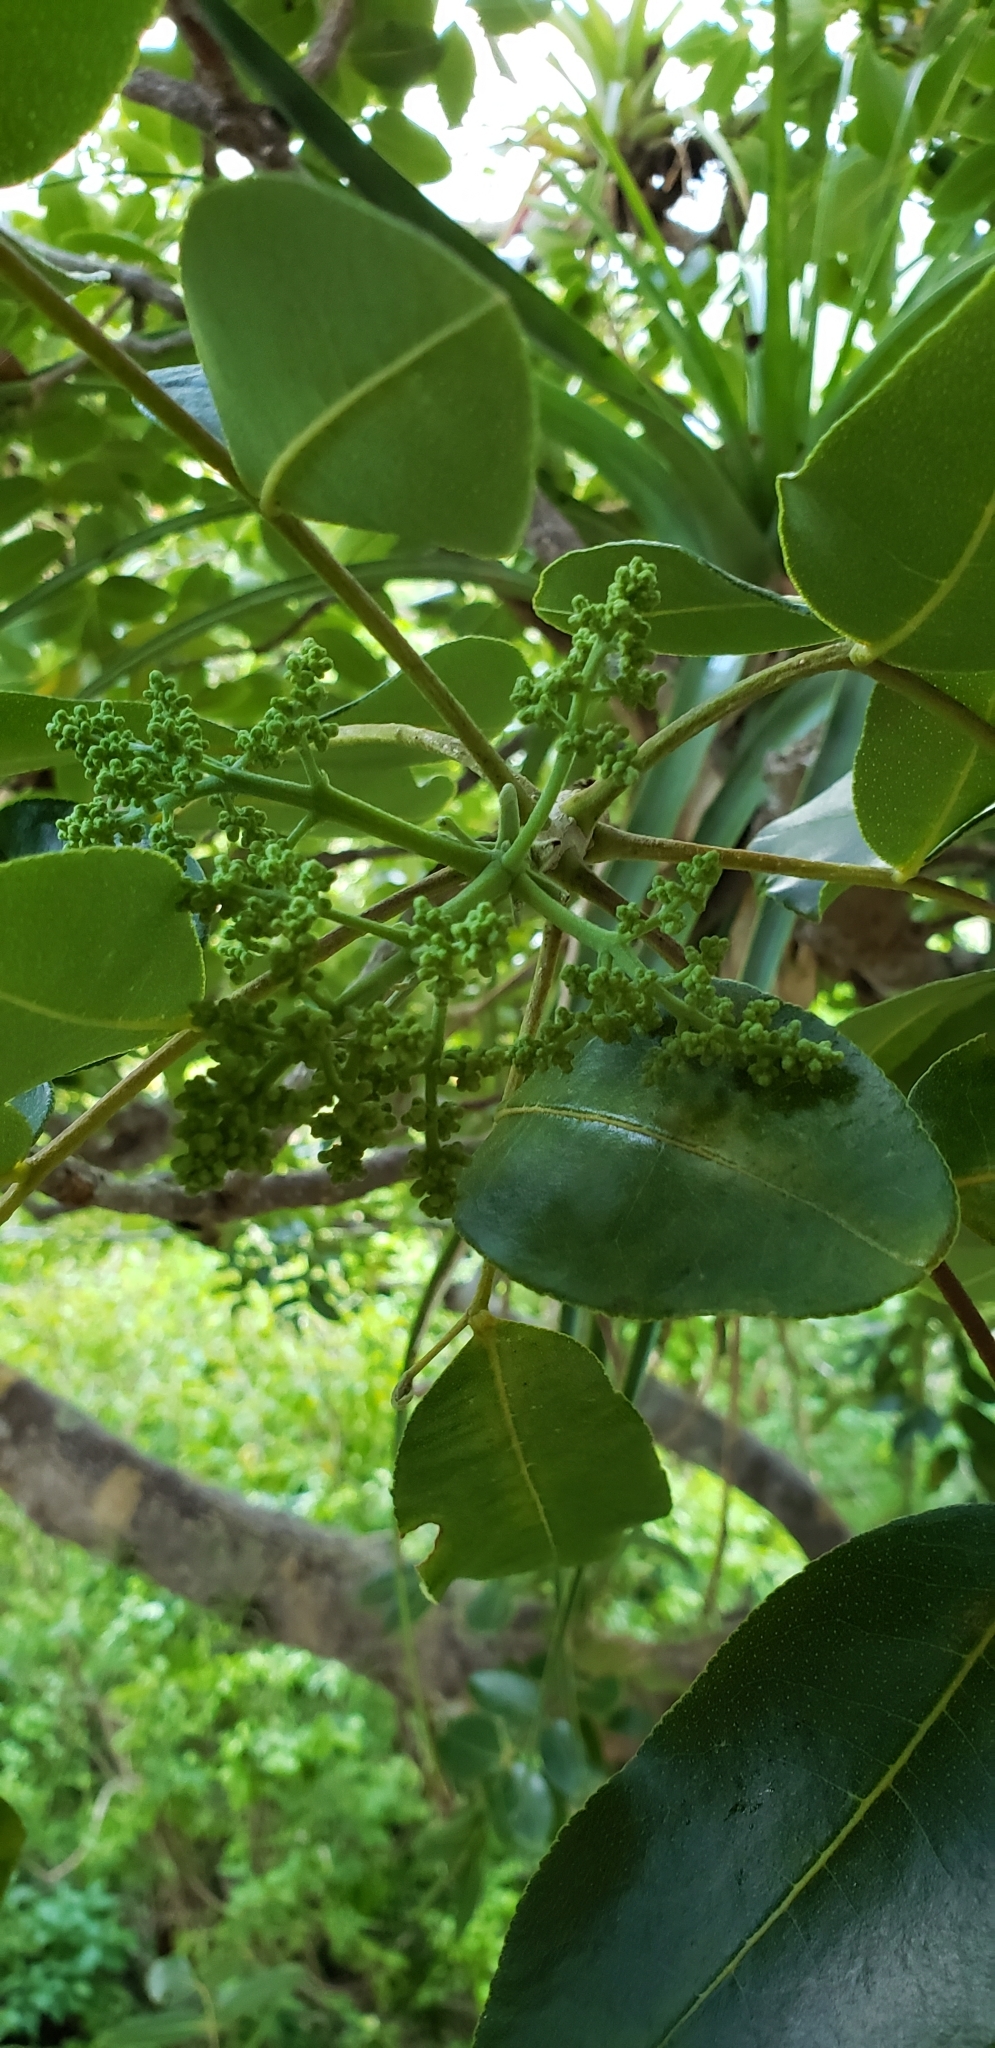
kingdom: Plantae
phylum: Tracheophyta
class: Magnoliopsida
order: Sapindales
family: Rutaceae
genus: Zanthoxylum
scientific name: Zanthoxylum flavum
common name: West indian satinwood
